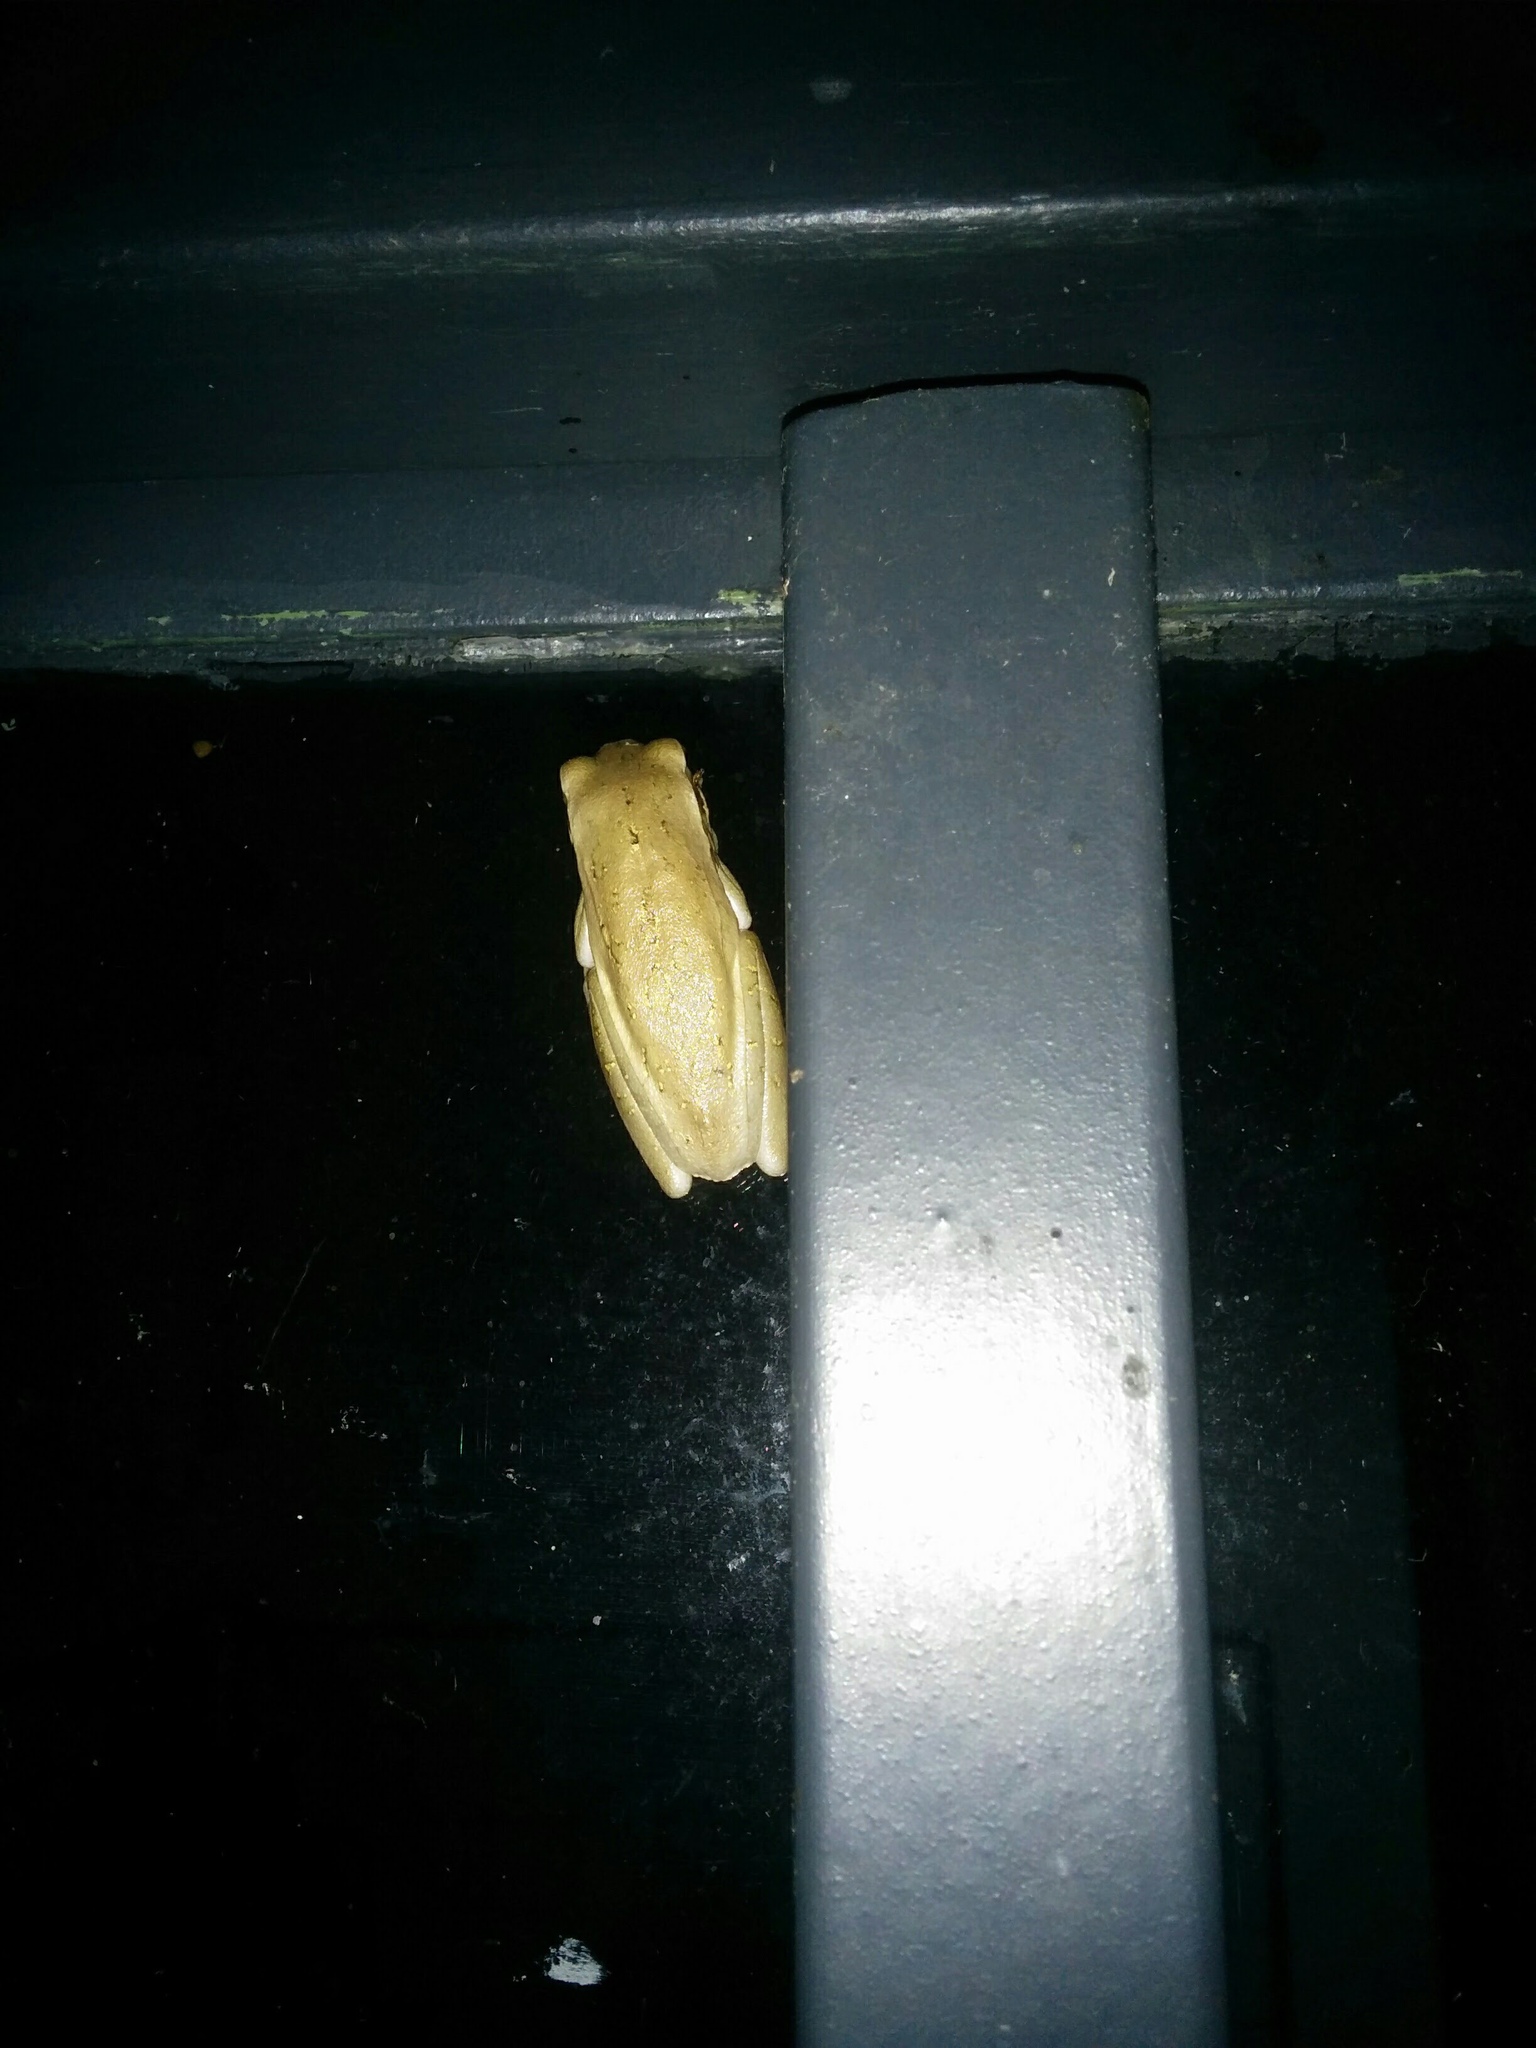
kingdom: Animalia
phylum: Chordata
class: Amphibia
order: Anura
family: Hylidae
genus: Boana
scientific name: Boana pulchella
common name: Montevideo treefrog
